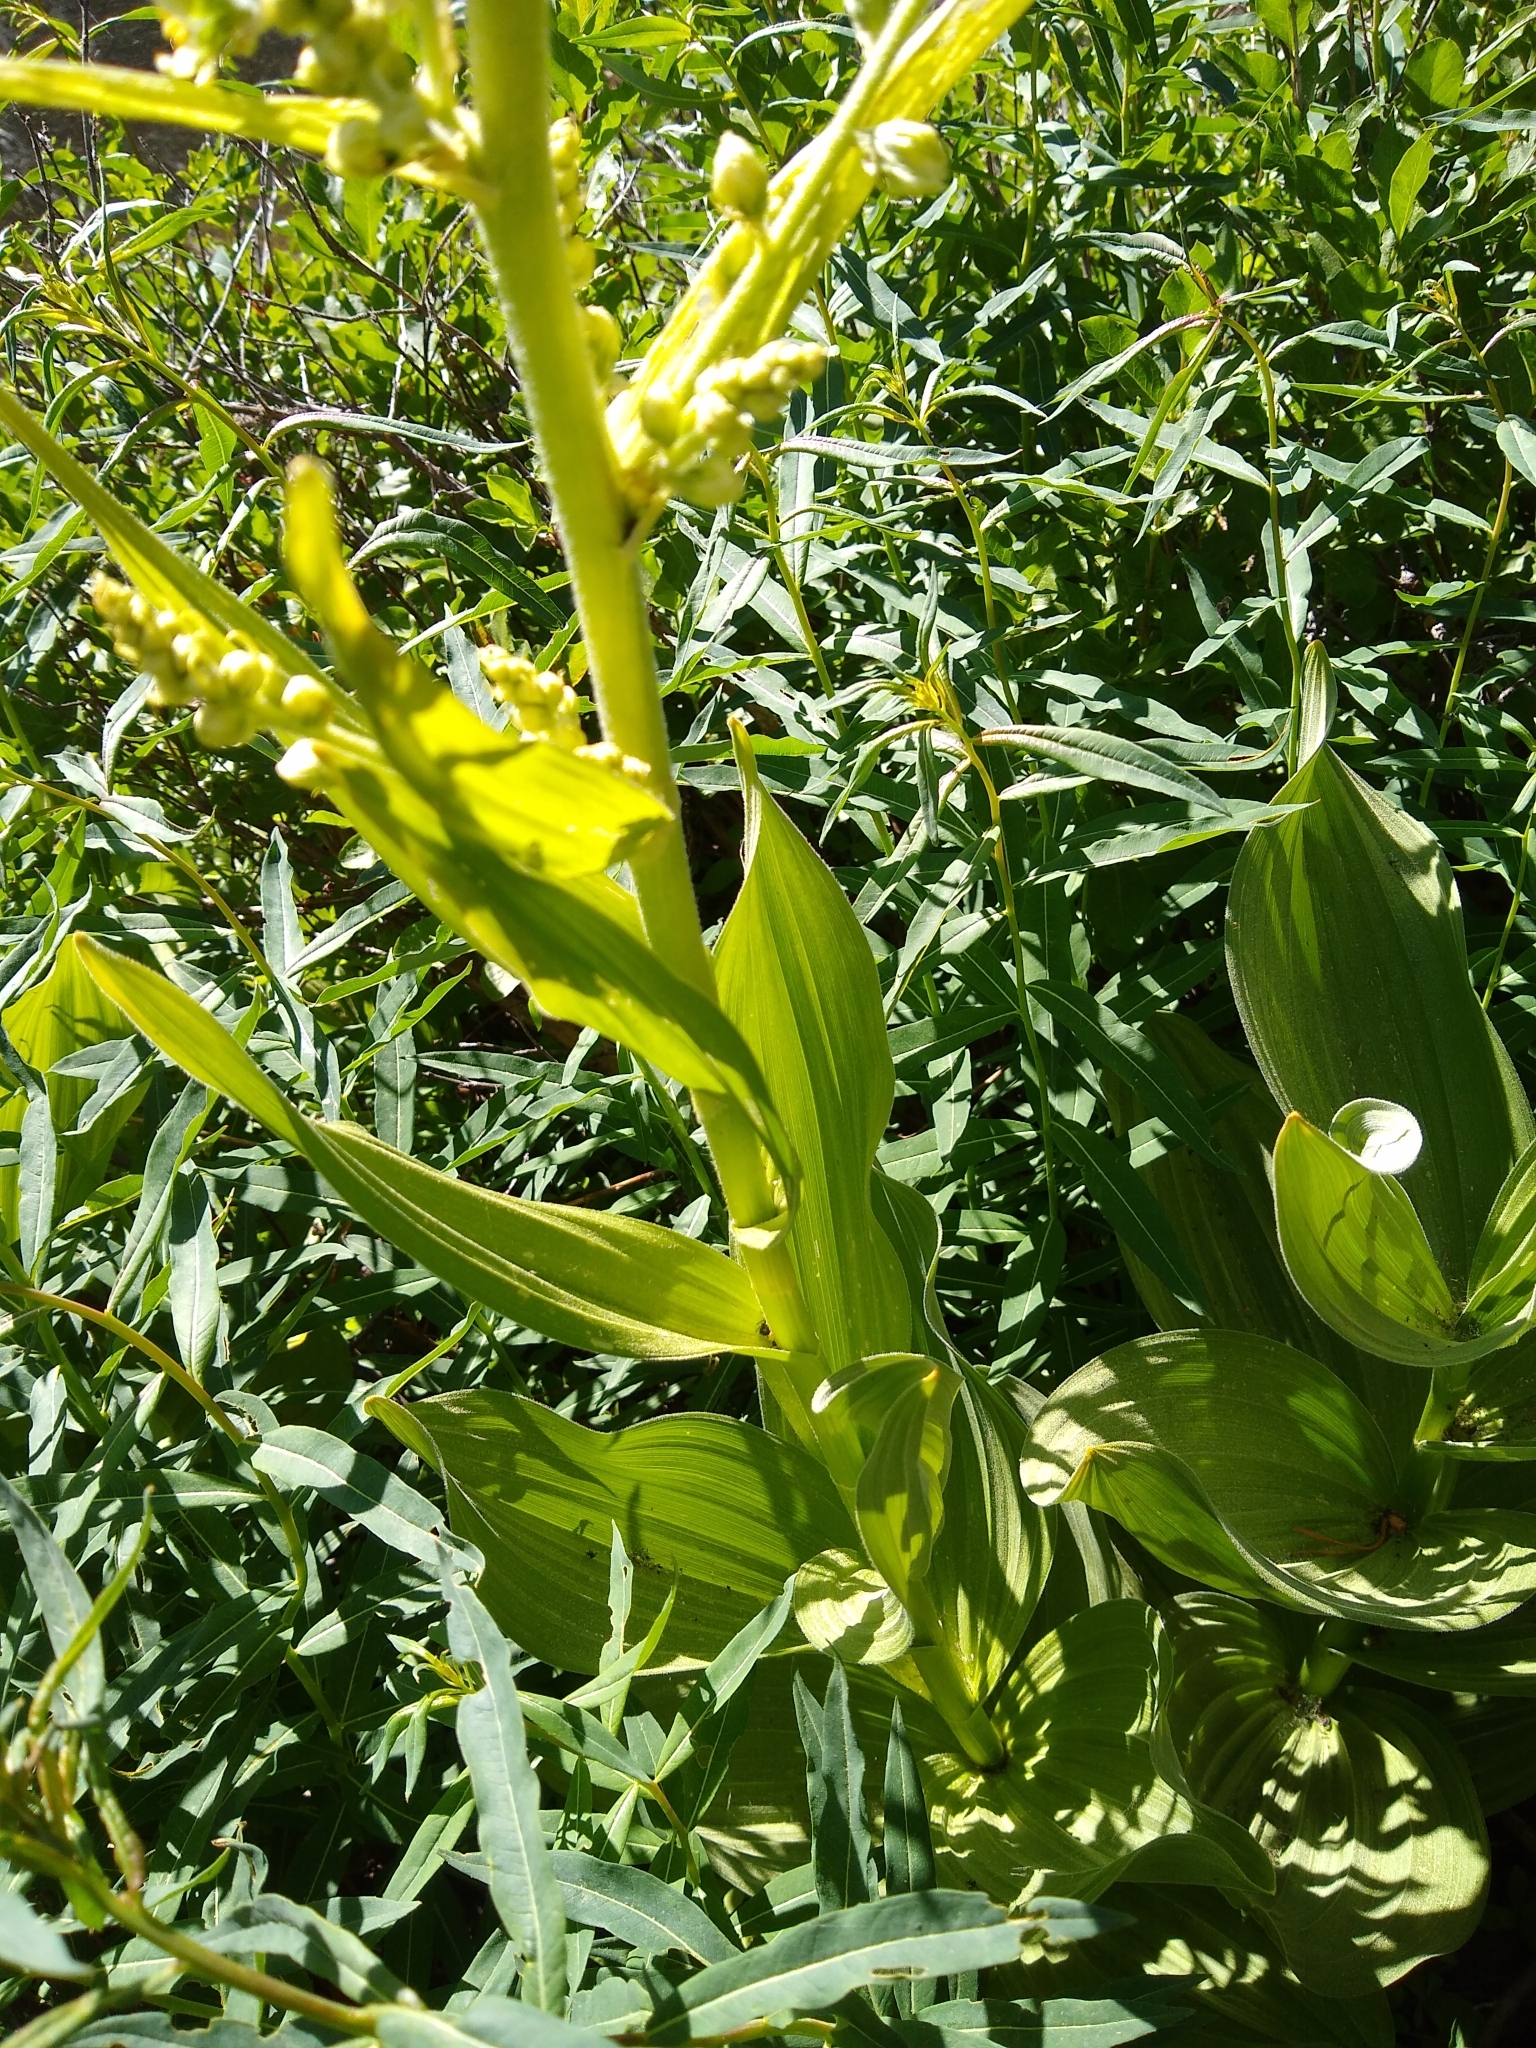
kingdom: Plantae
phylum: Tracheophyta
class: Liliopsida
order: Liliales
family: Melanthiaceae
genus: Veratrum
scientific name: Veratrum californicum
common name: California veratrum
